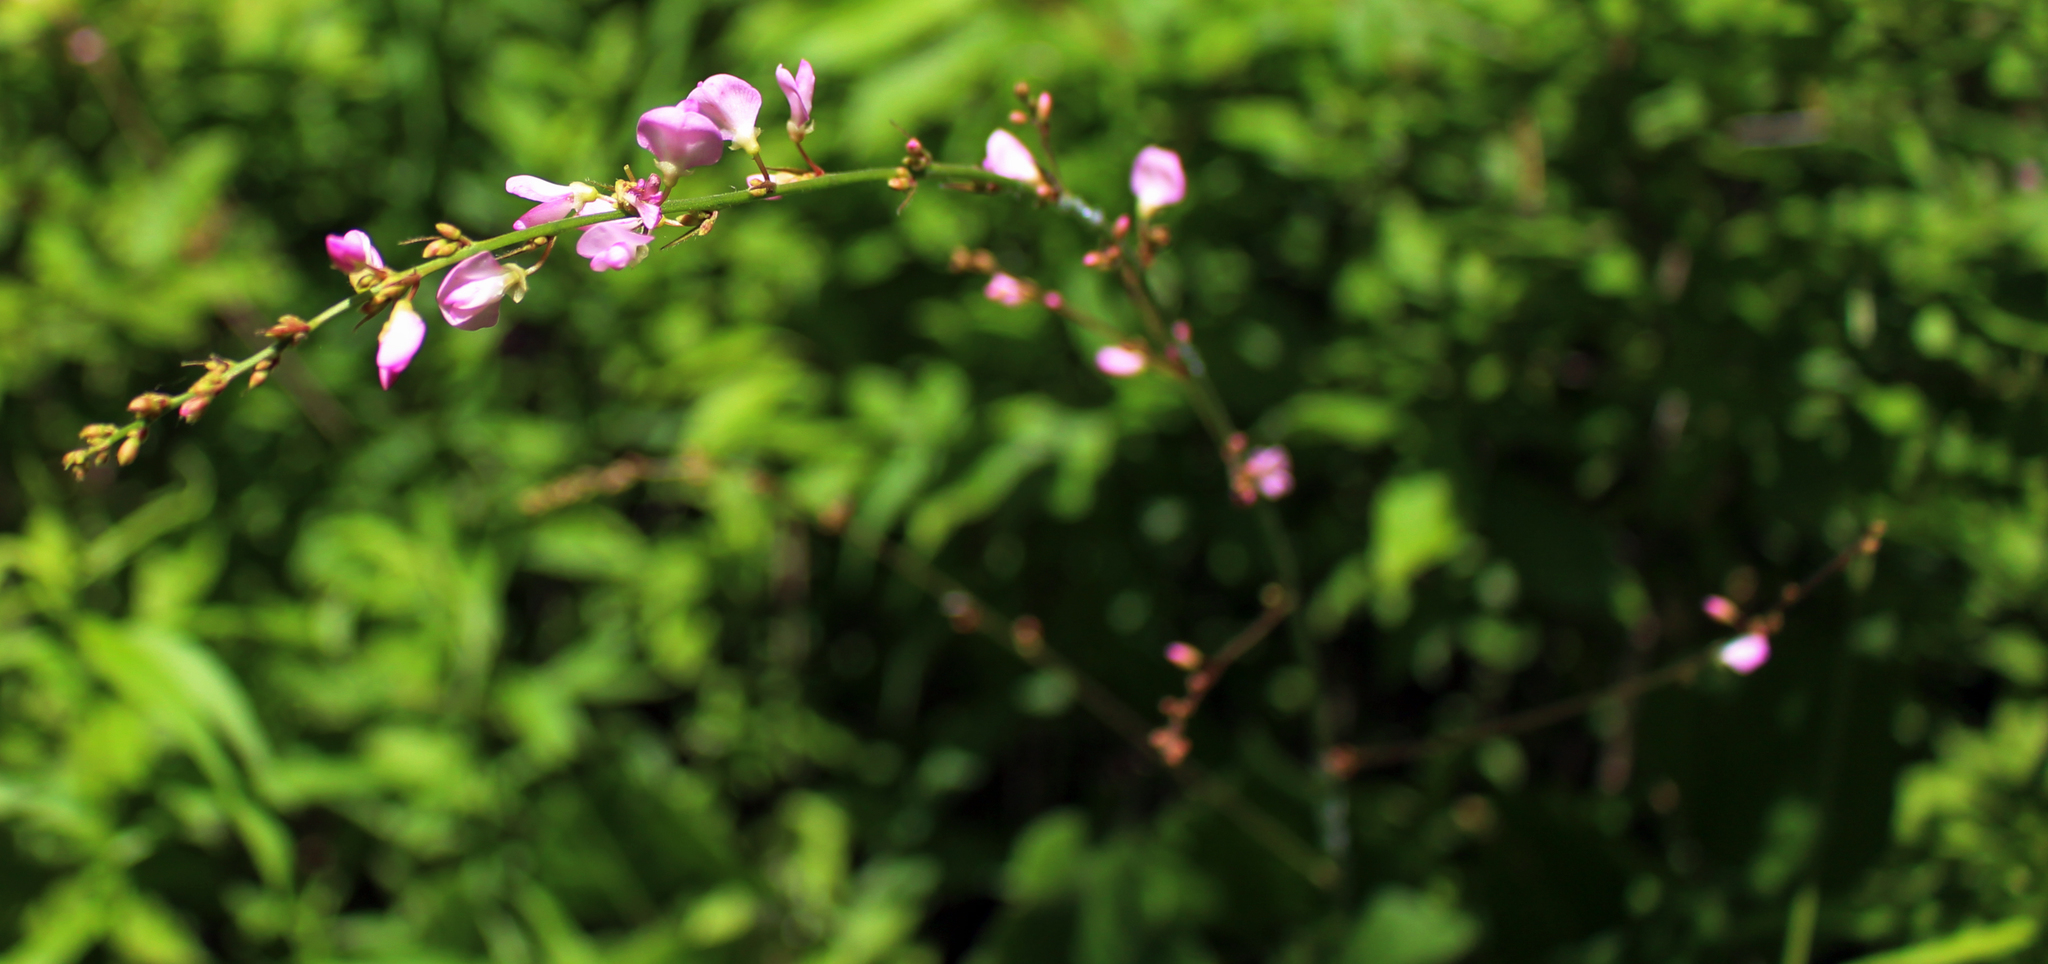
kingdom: Plantae
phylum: Tracheophyta
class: Magnoliopsida
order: Fabales
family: Fabaceae
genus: Hylodesmum
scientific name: Hylodesmum glutinosum
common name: Clustered-leaved tick-trefoil
